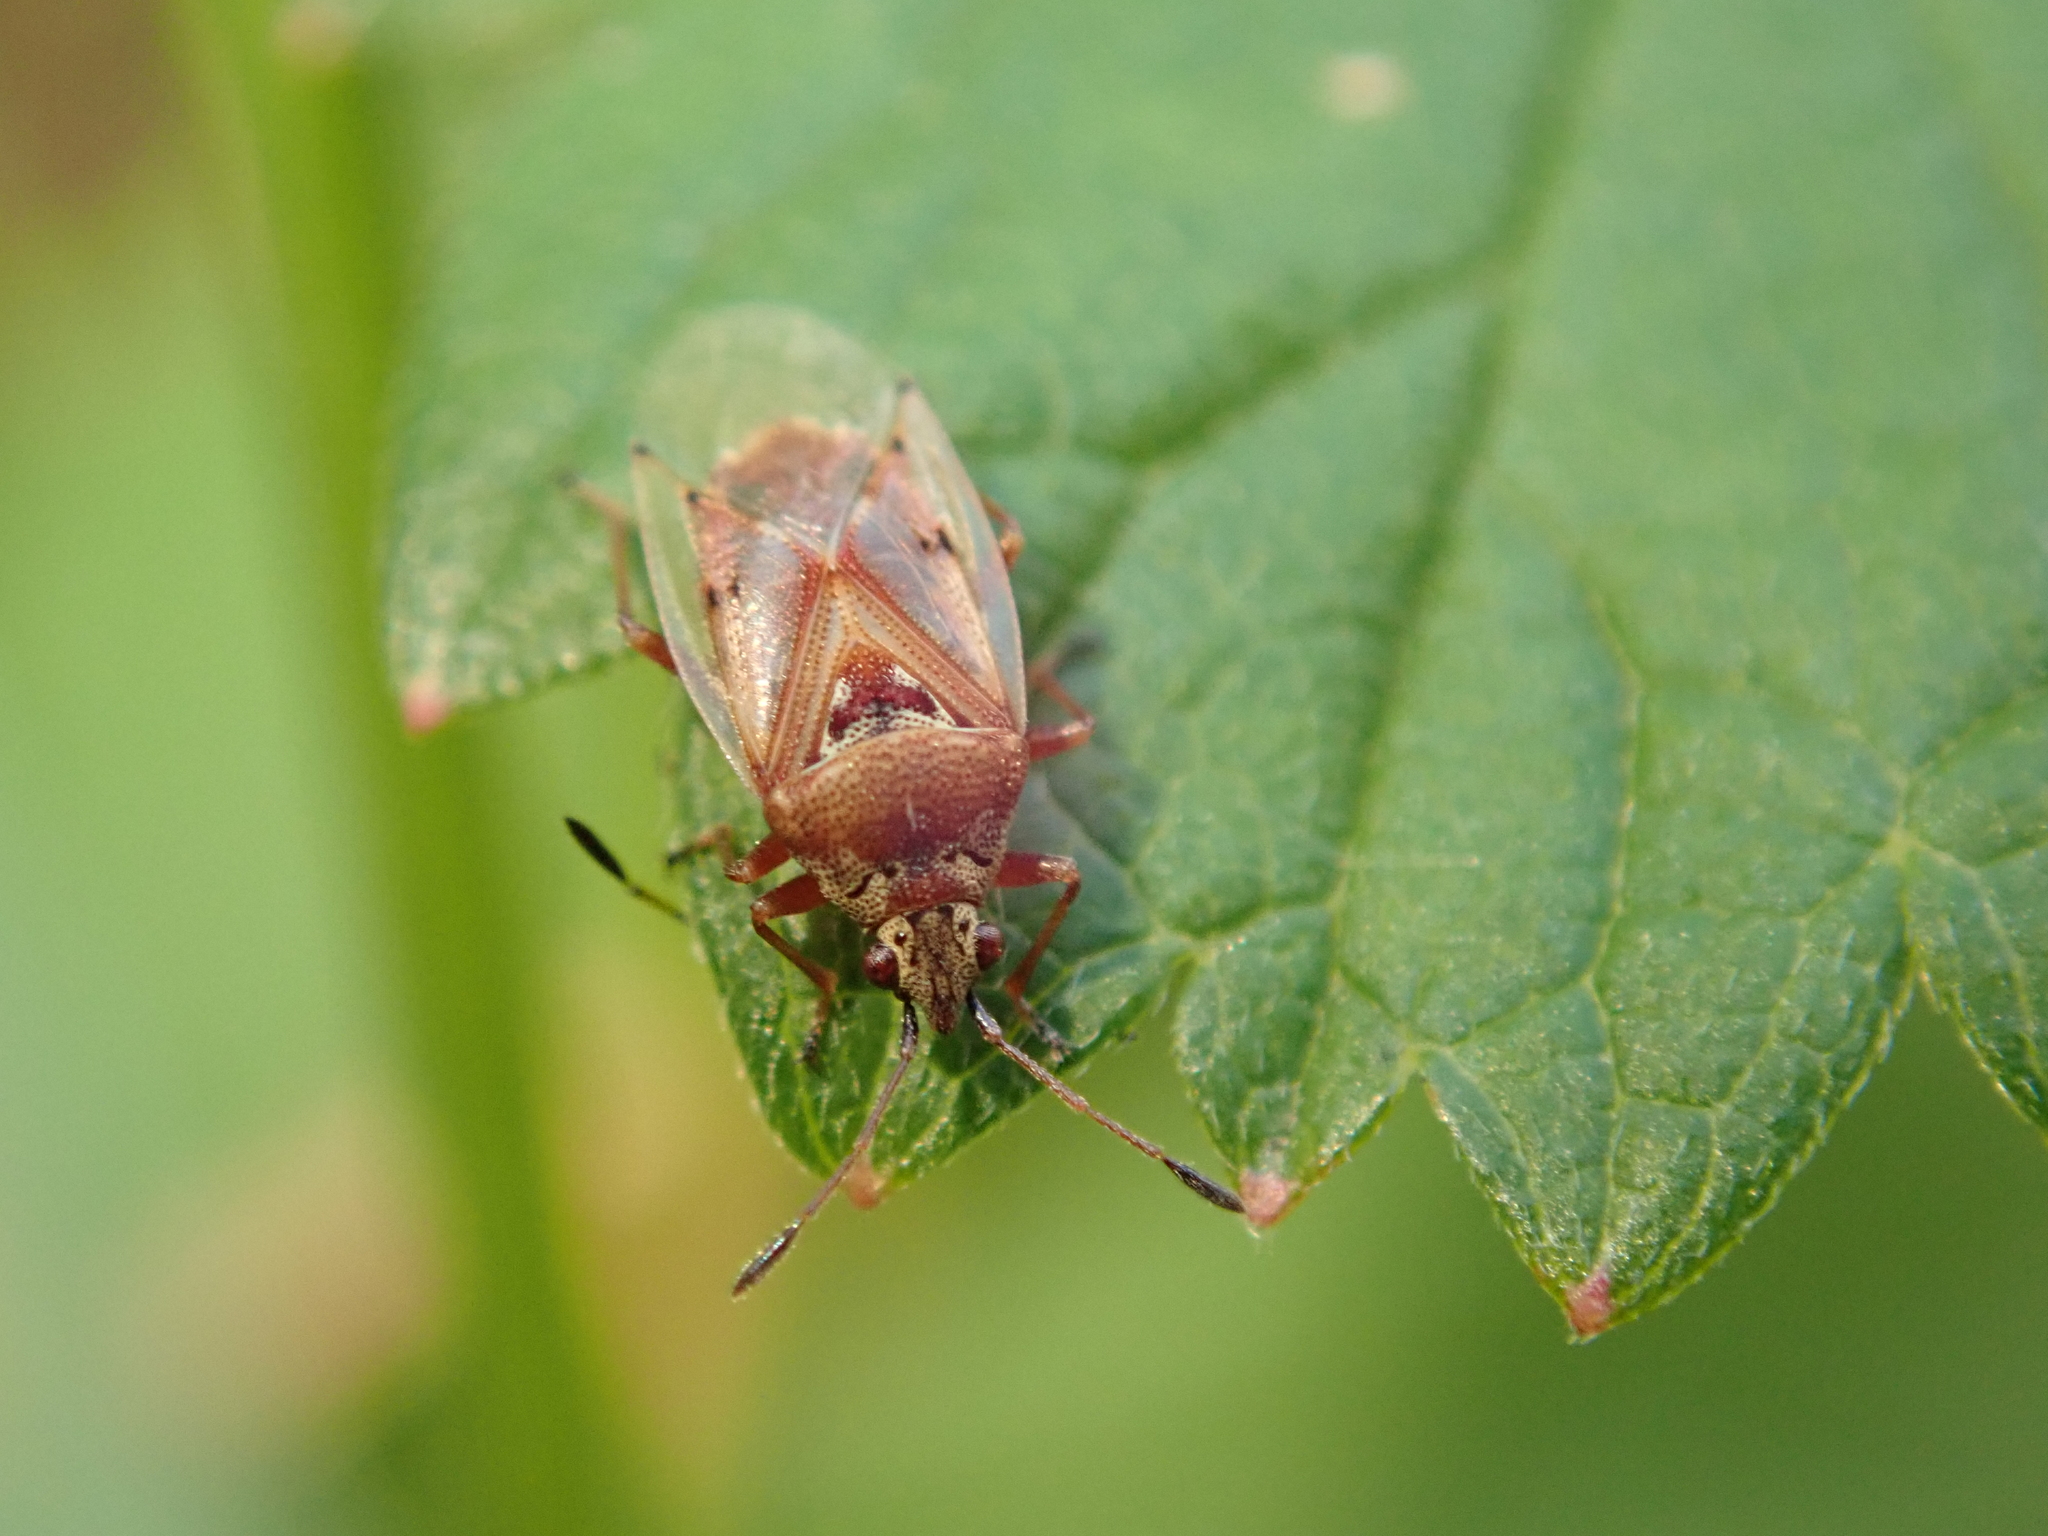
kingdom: Animalia
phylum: Arthropoda
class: Insecta
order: Hemiptera
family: Lygaeidae
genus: Kleidocerys
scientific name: Kleidocerys resedae
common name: Birch catkin bug
